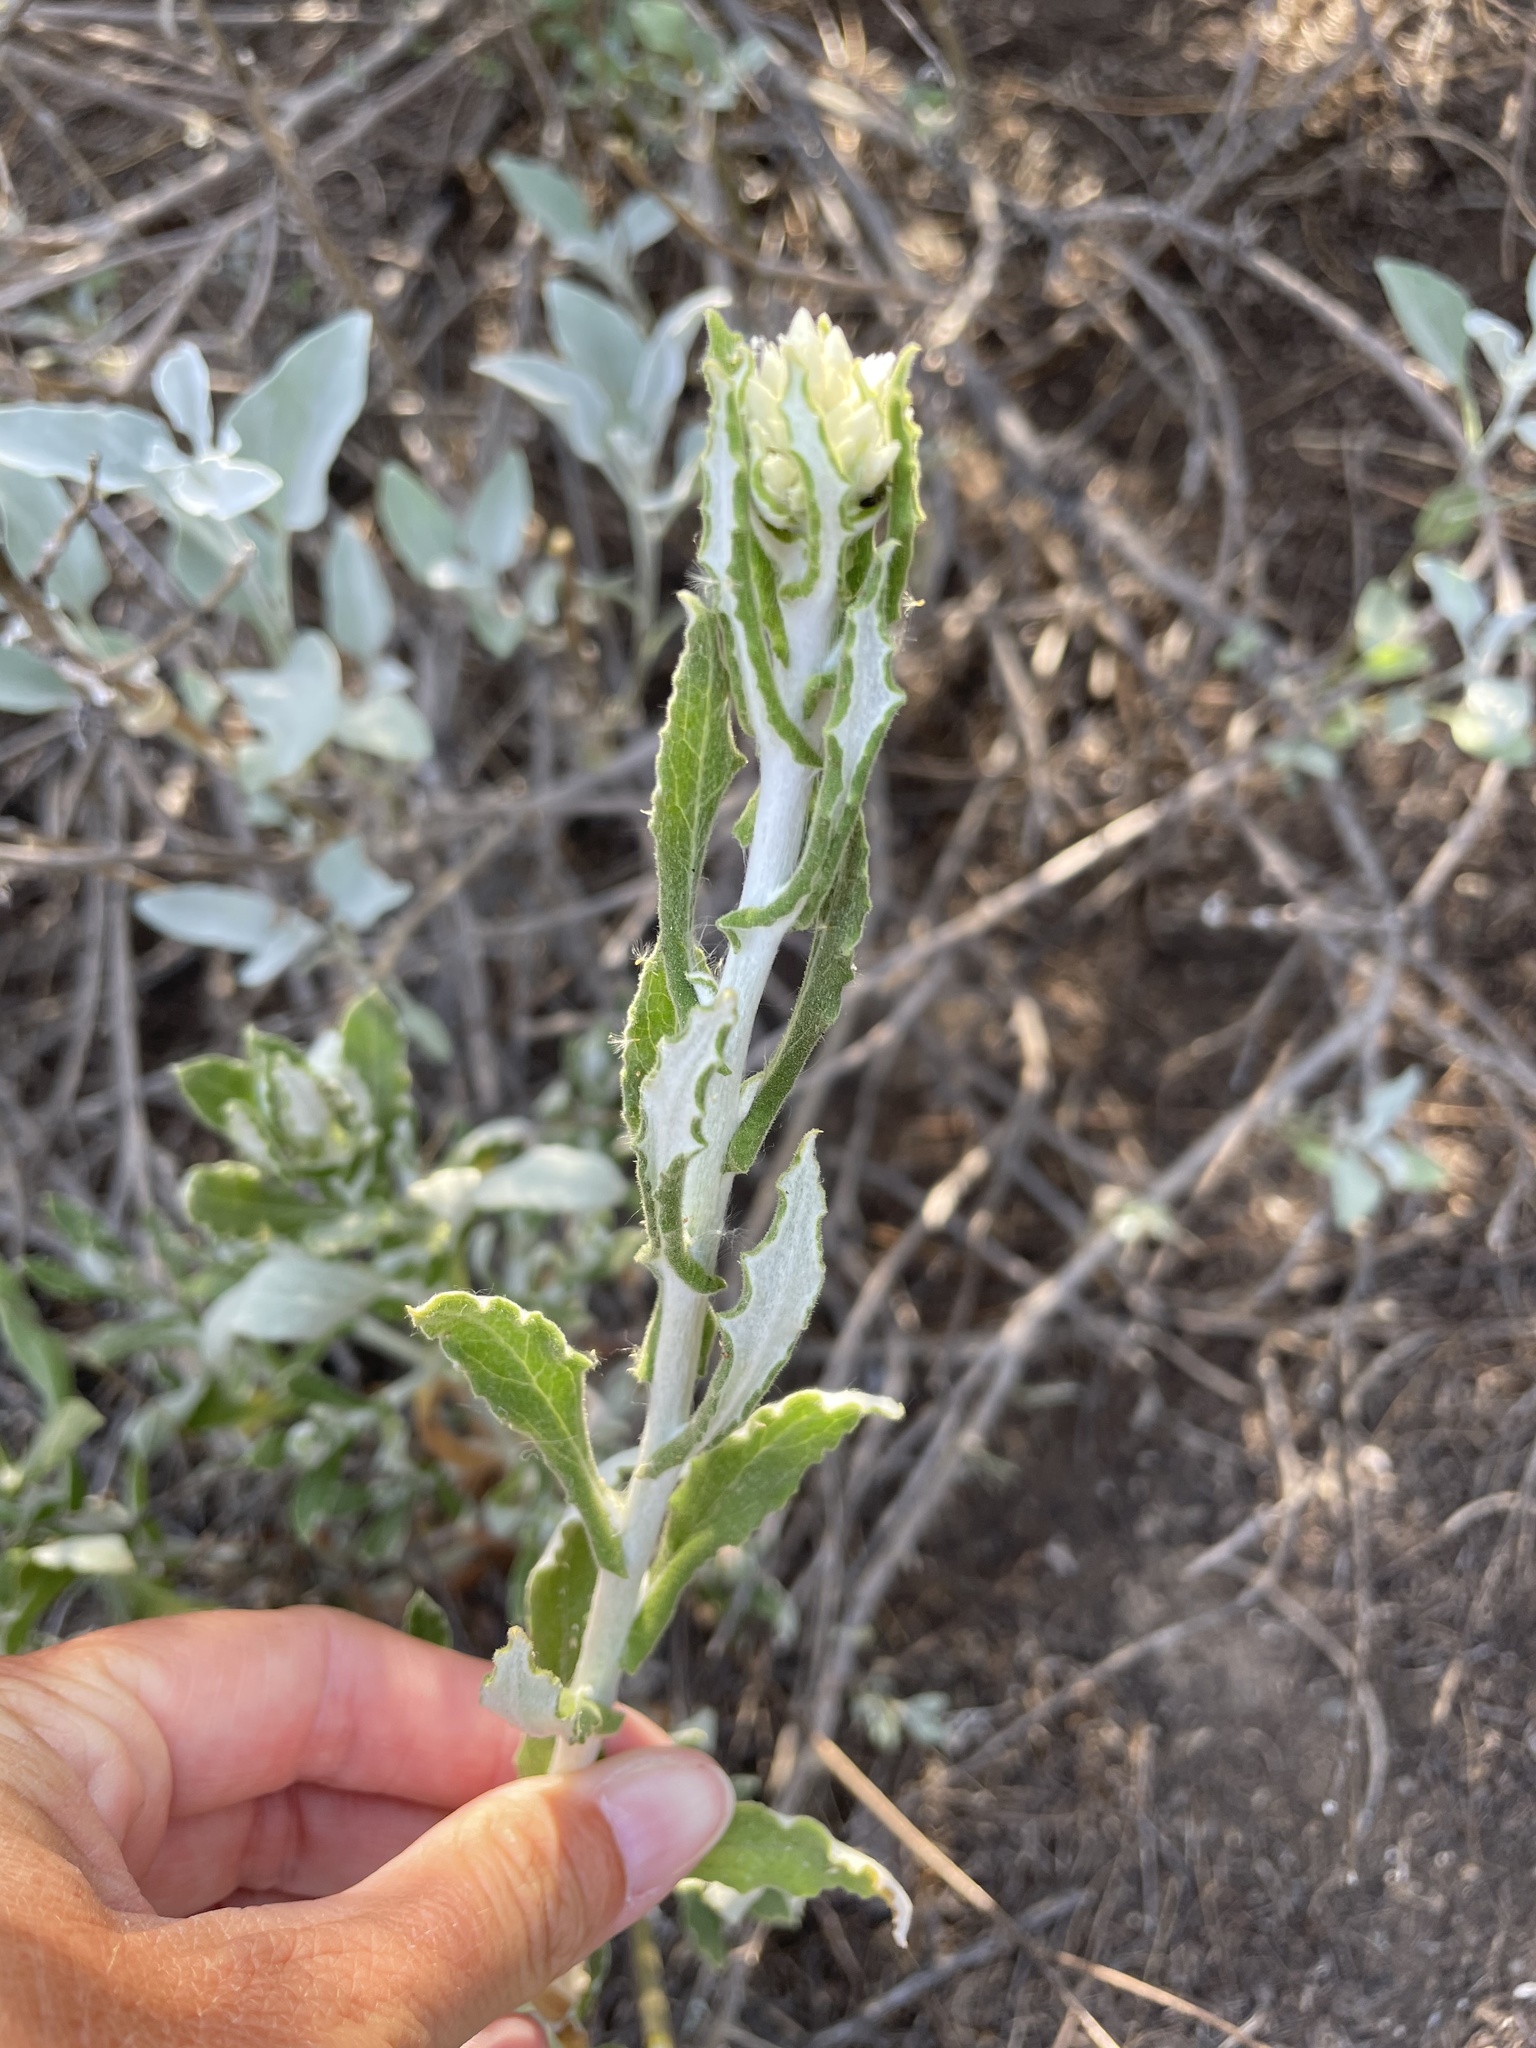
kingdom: Plantae
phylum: Tracheophyta
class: Magnoliopsida
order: Asterales
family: Asteraceae
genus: Pseudognaphalium
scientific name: Pseudognaphalium biolettii
